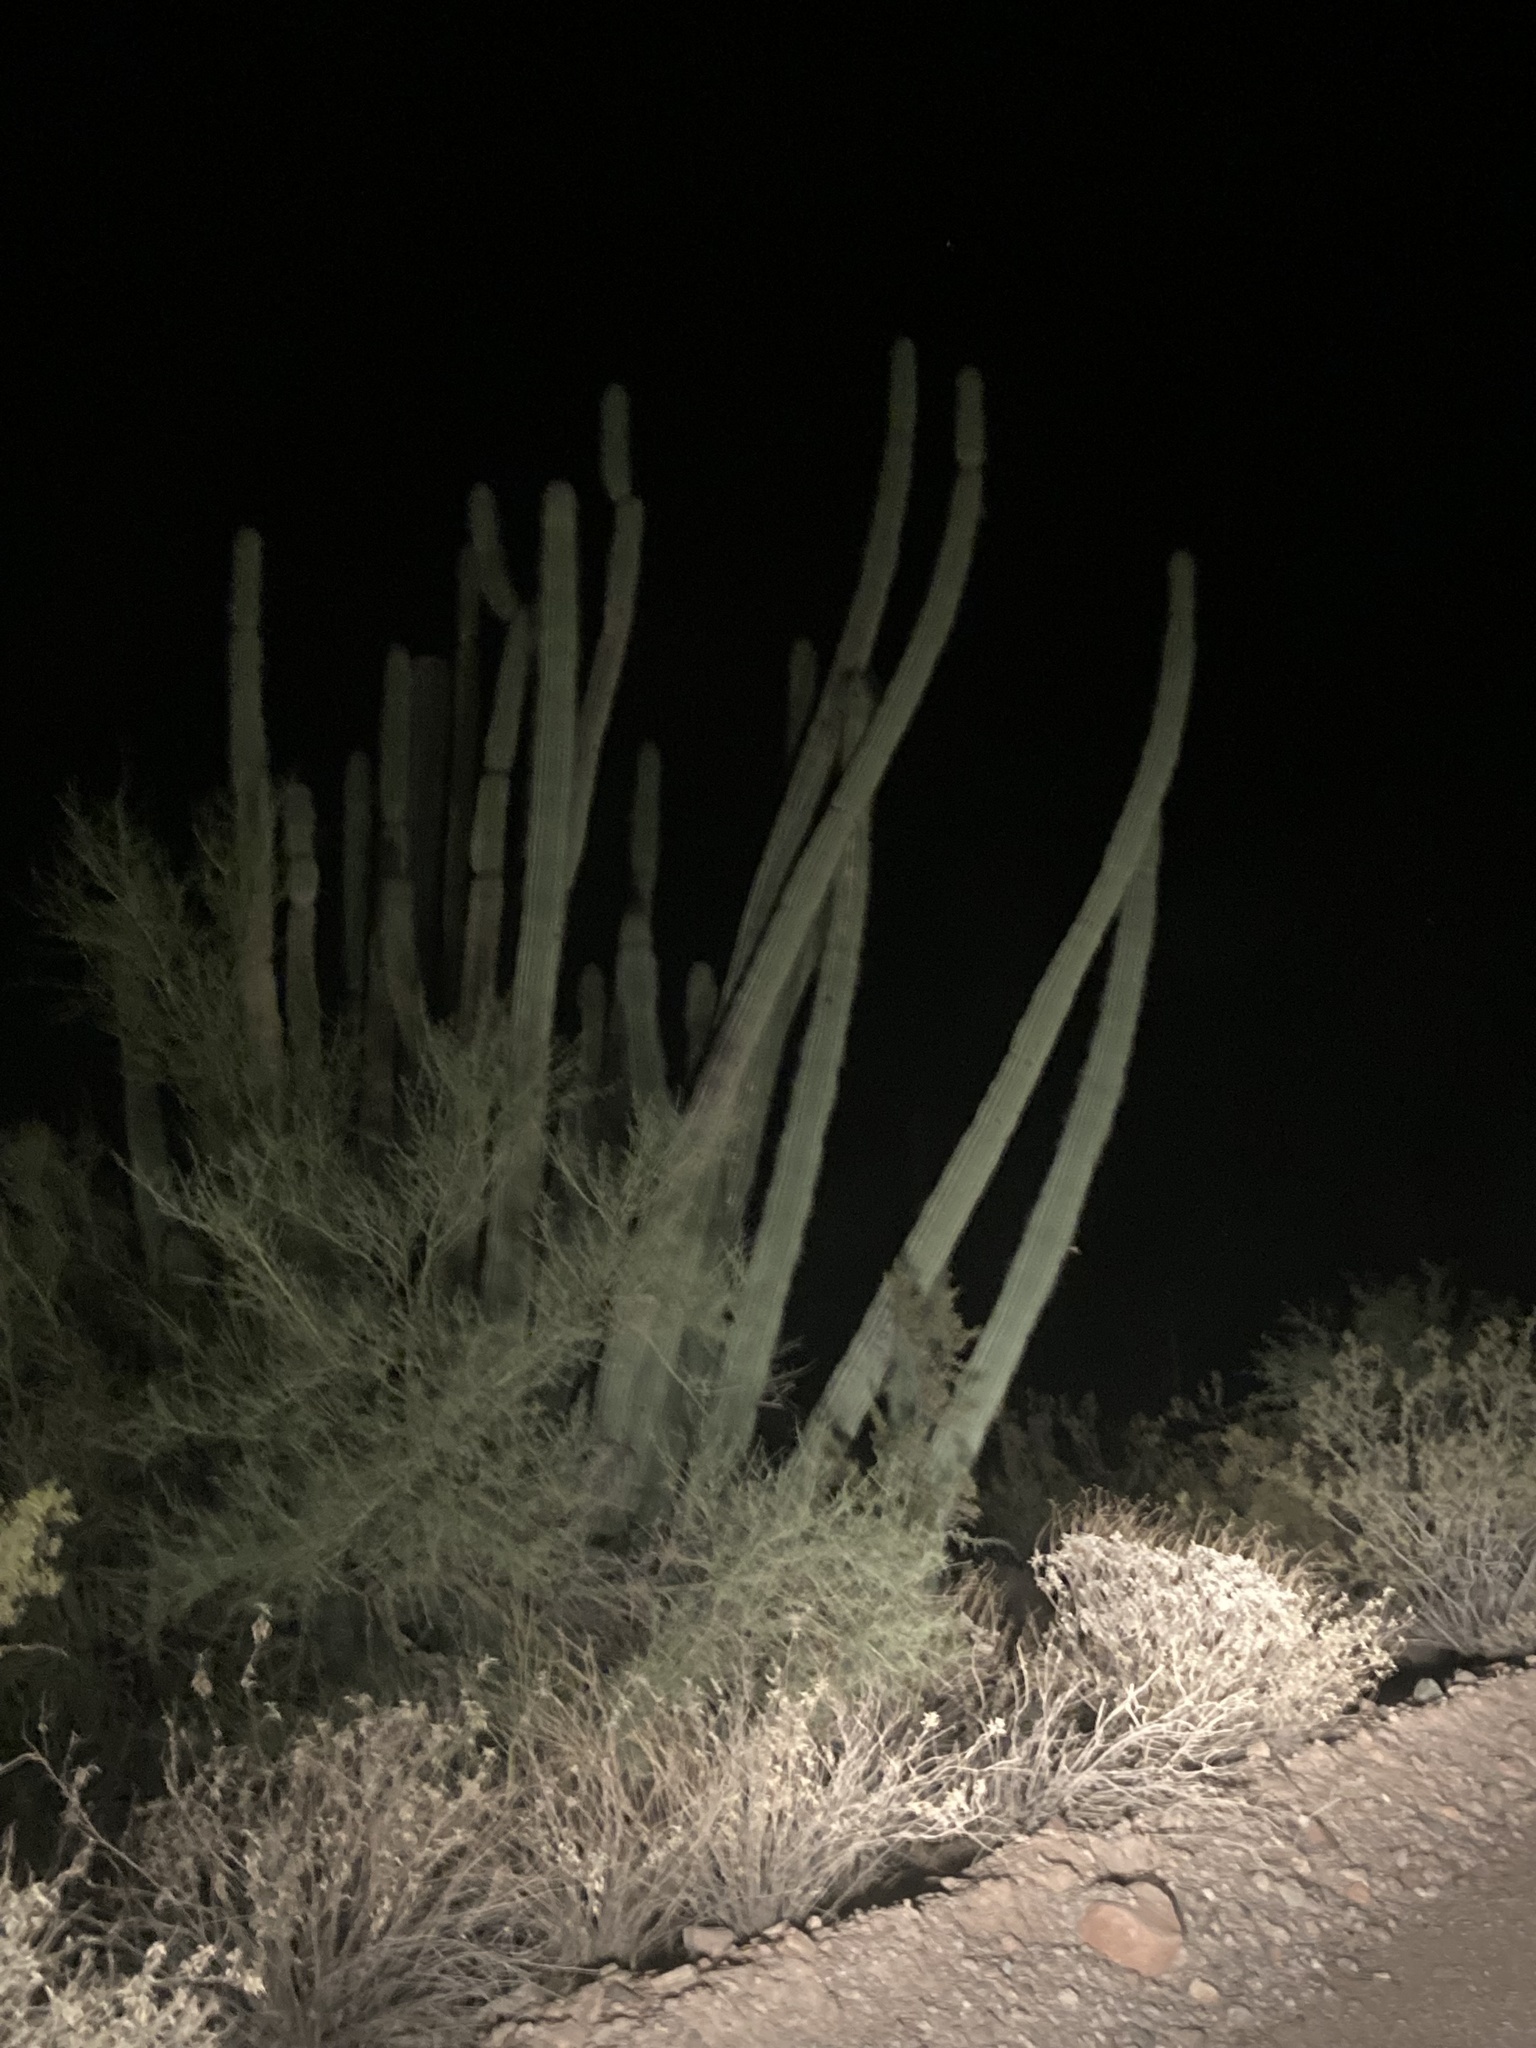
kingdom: Plantae
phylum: Tracheophyta
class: Magnoliopsida
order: Caryophyllales
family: Cactaceae
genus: Stenocereus
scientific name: Stenocereus thurberi
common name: Organ pipe cactus
